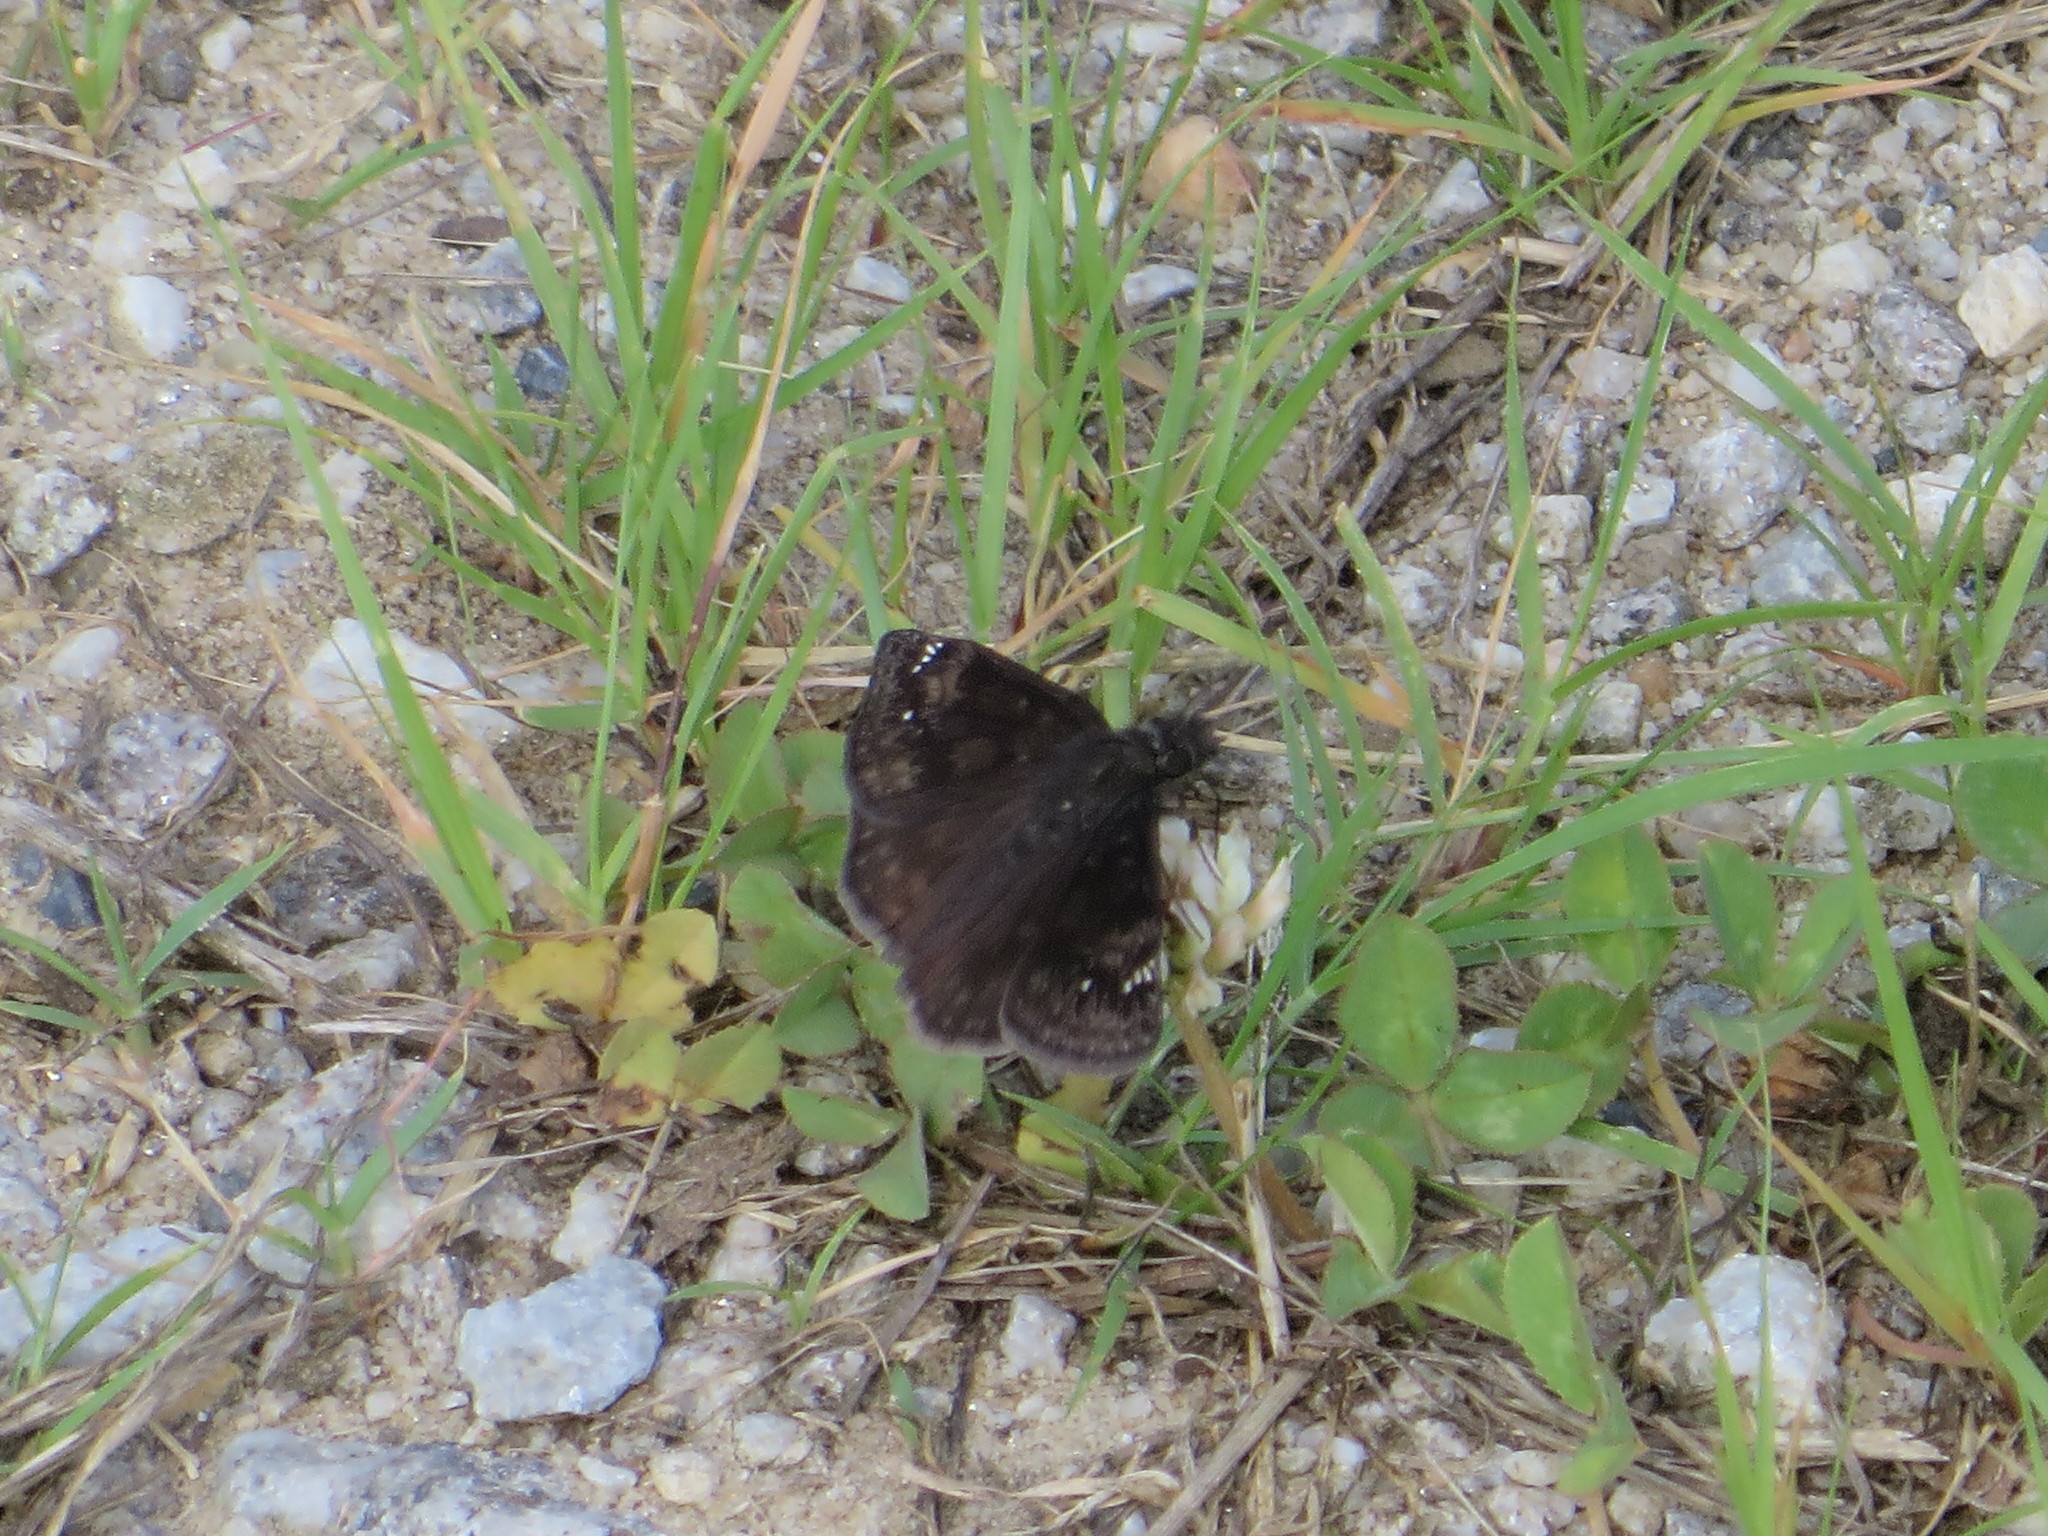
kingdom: Animalia
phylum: Arthropoda
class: Insecta
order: Lepidoptera
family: Hesperiidae
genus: Erynnis
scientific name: Erynnis baptisiae
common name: Wild indigo duskywing
